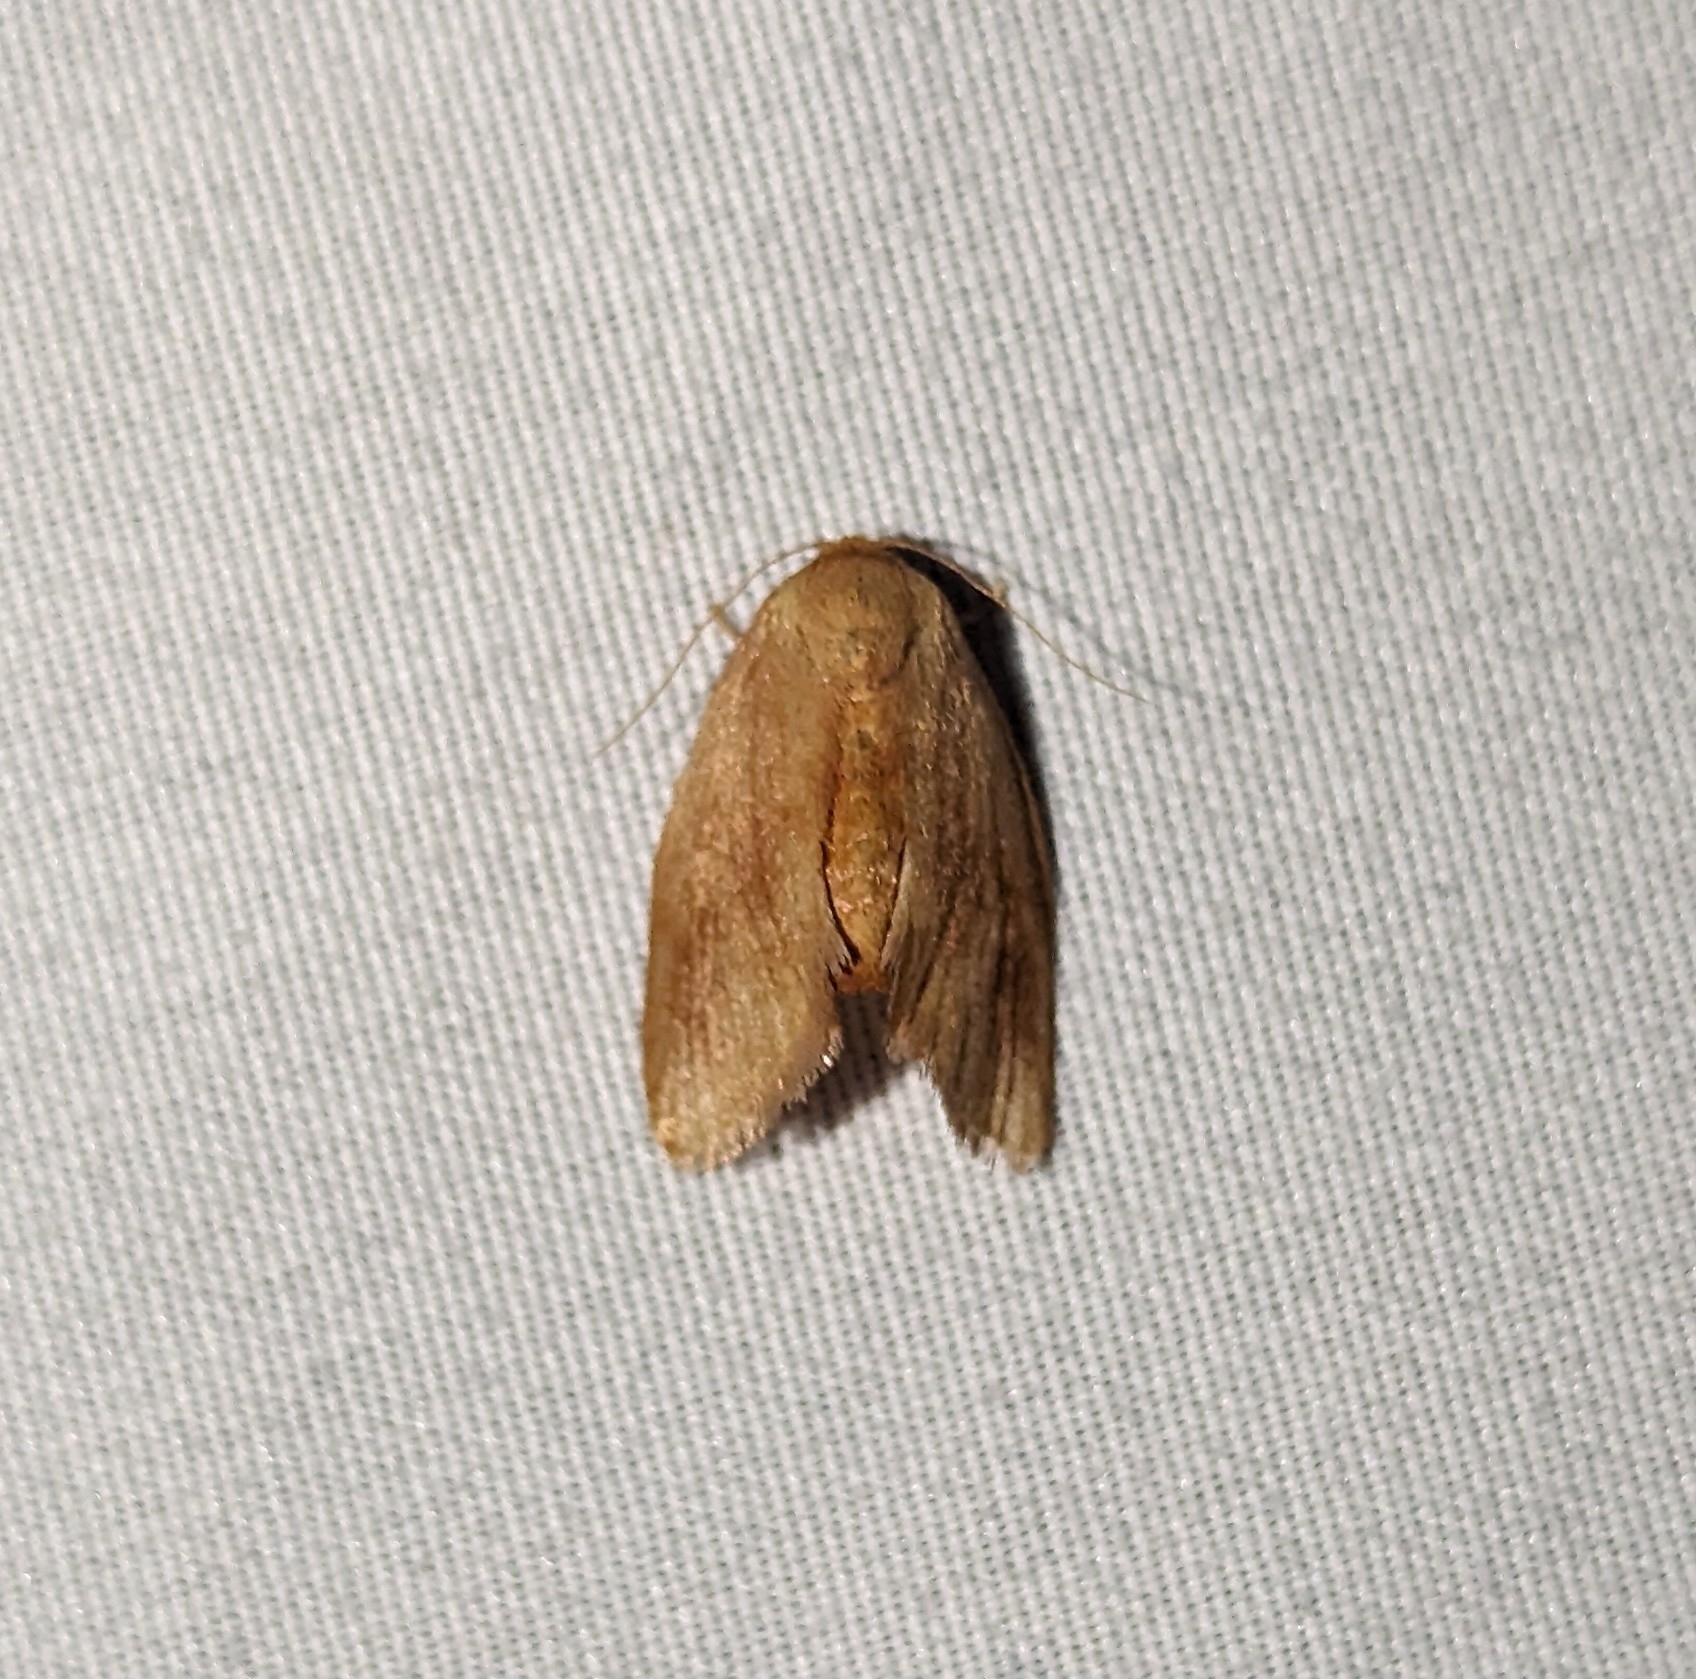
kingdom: Animalia
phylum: Arthropoda
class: Insecta
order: Lepidoptera
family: Limacodidae
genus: Tortricidia
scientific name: Tortricidia testacea
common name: Early button slug moth
